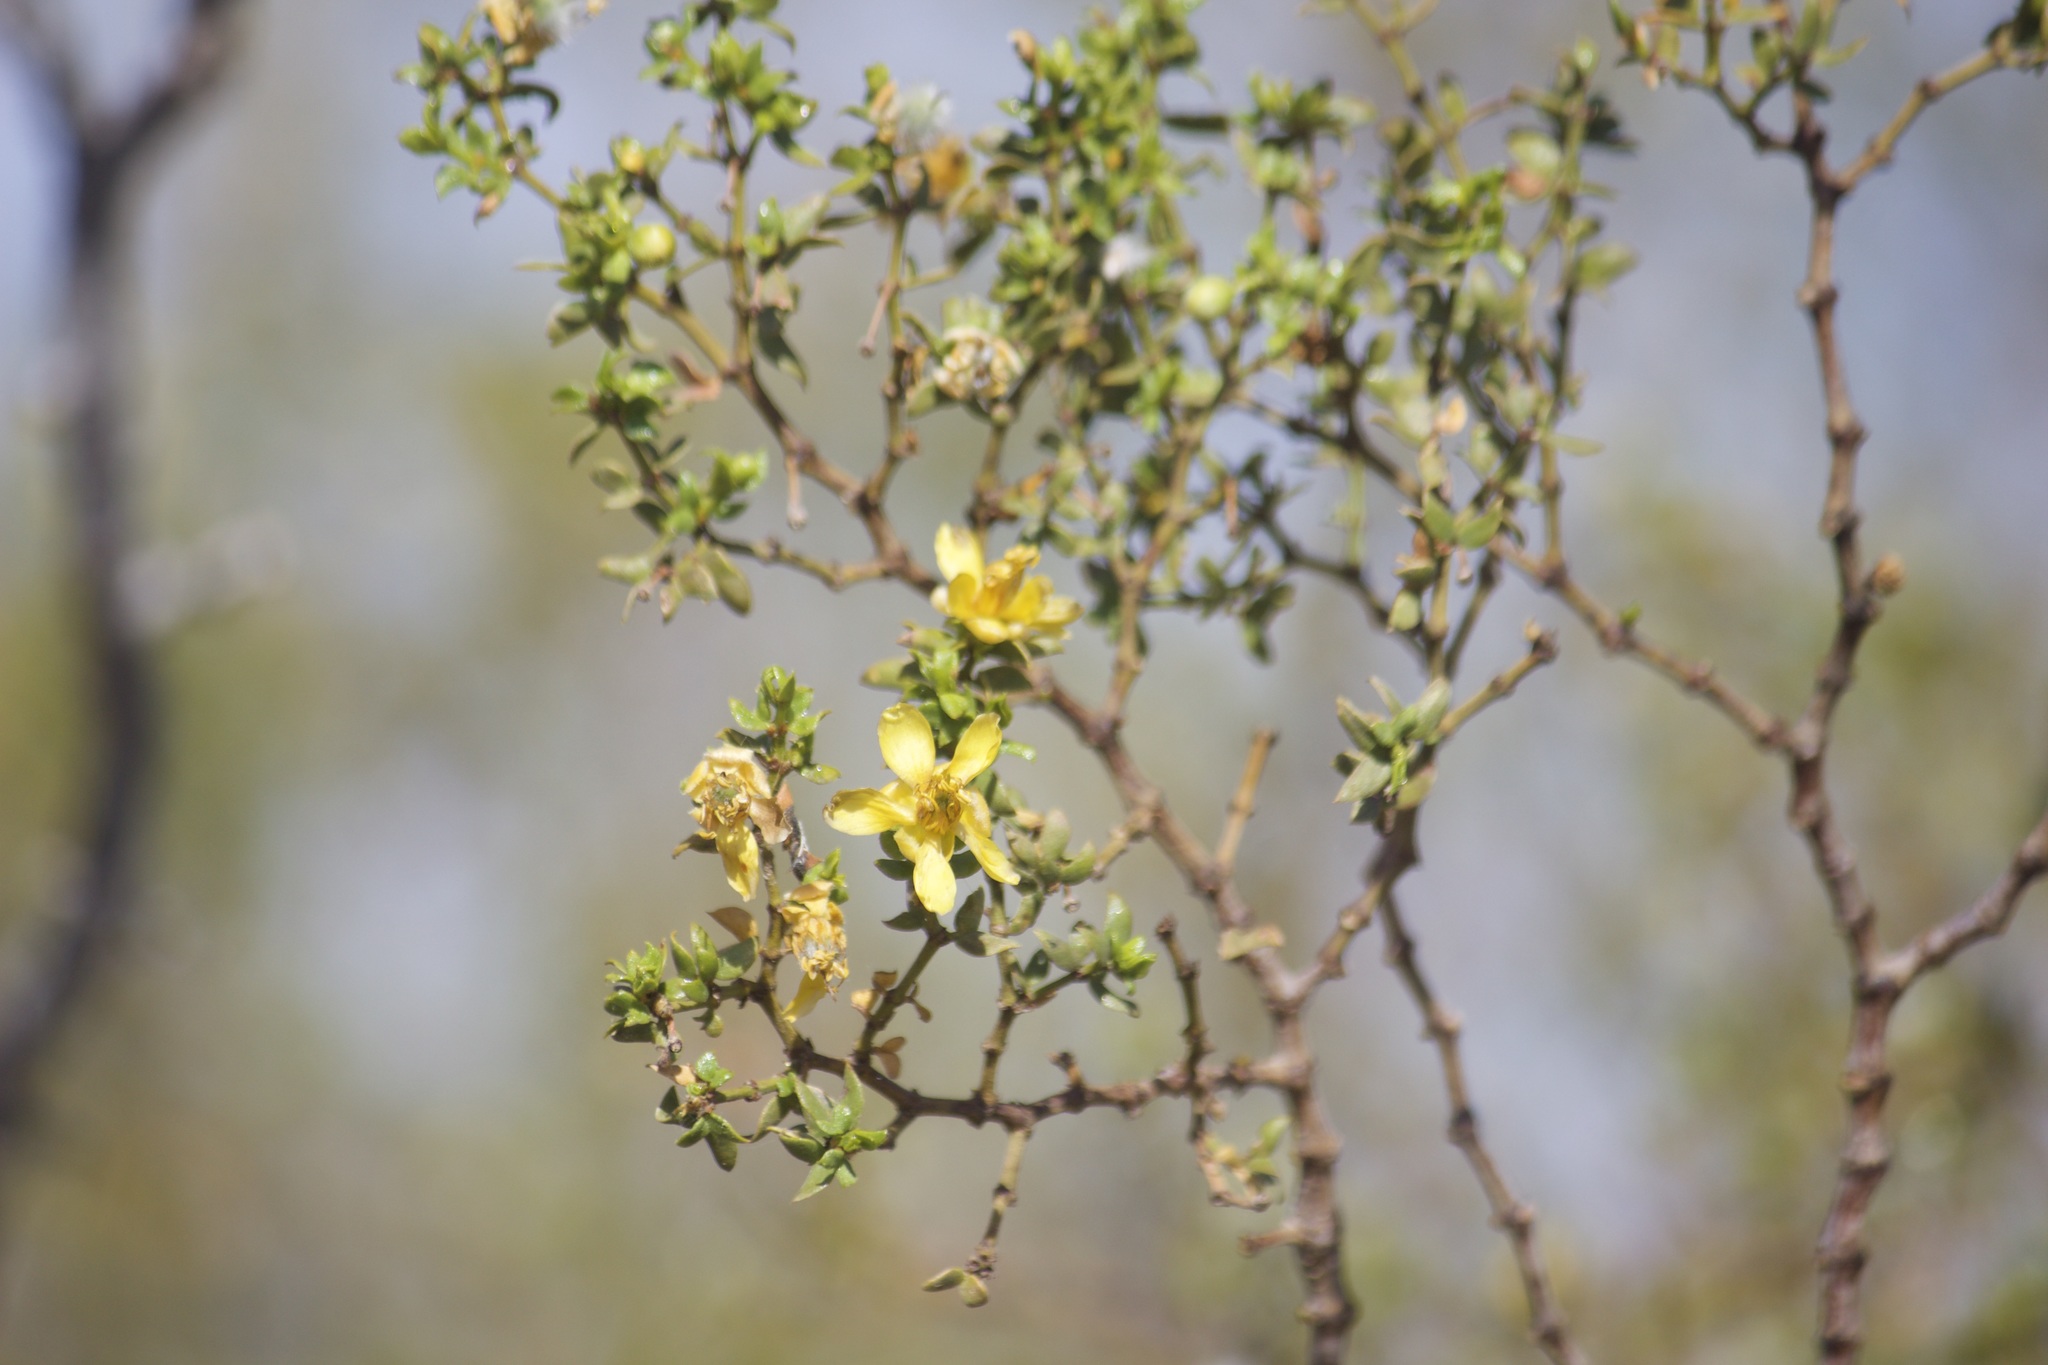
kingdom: Plantae
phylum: Tracheophyta
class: Magnoliopsida
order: Zygophyllales
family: Zygophyllaceae
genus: Larrea
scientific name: Larrea tridentata
